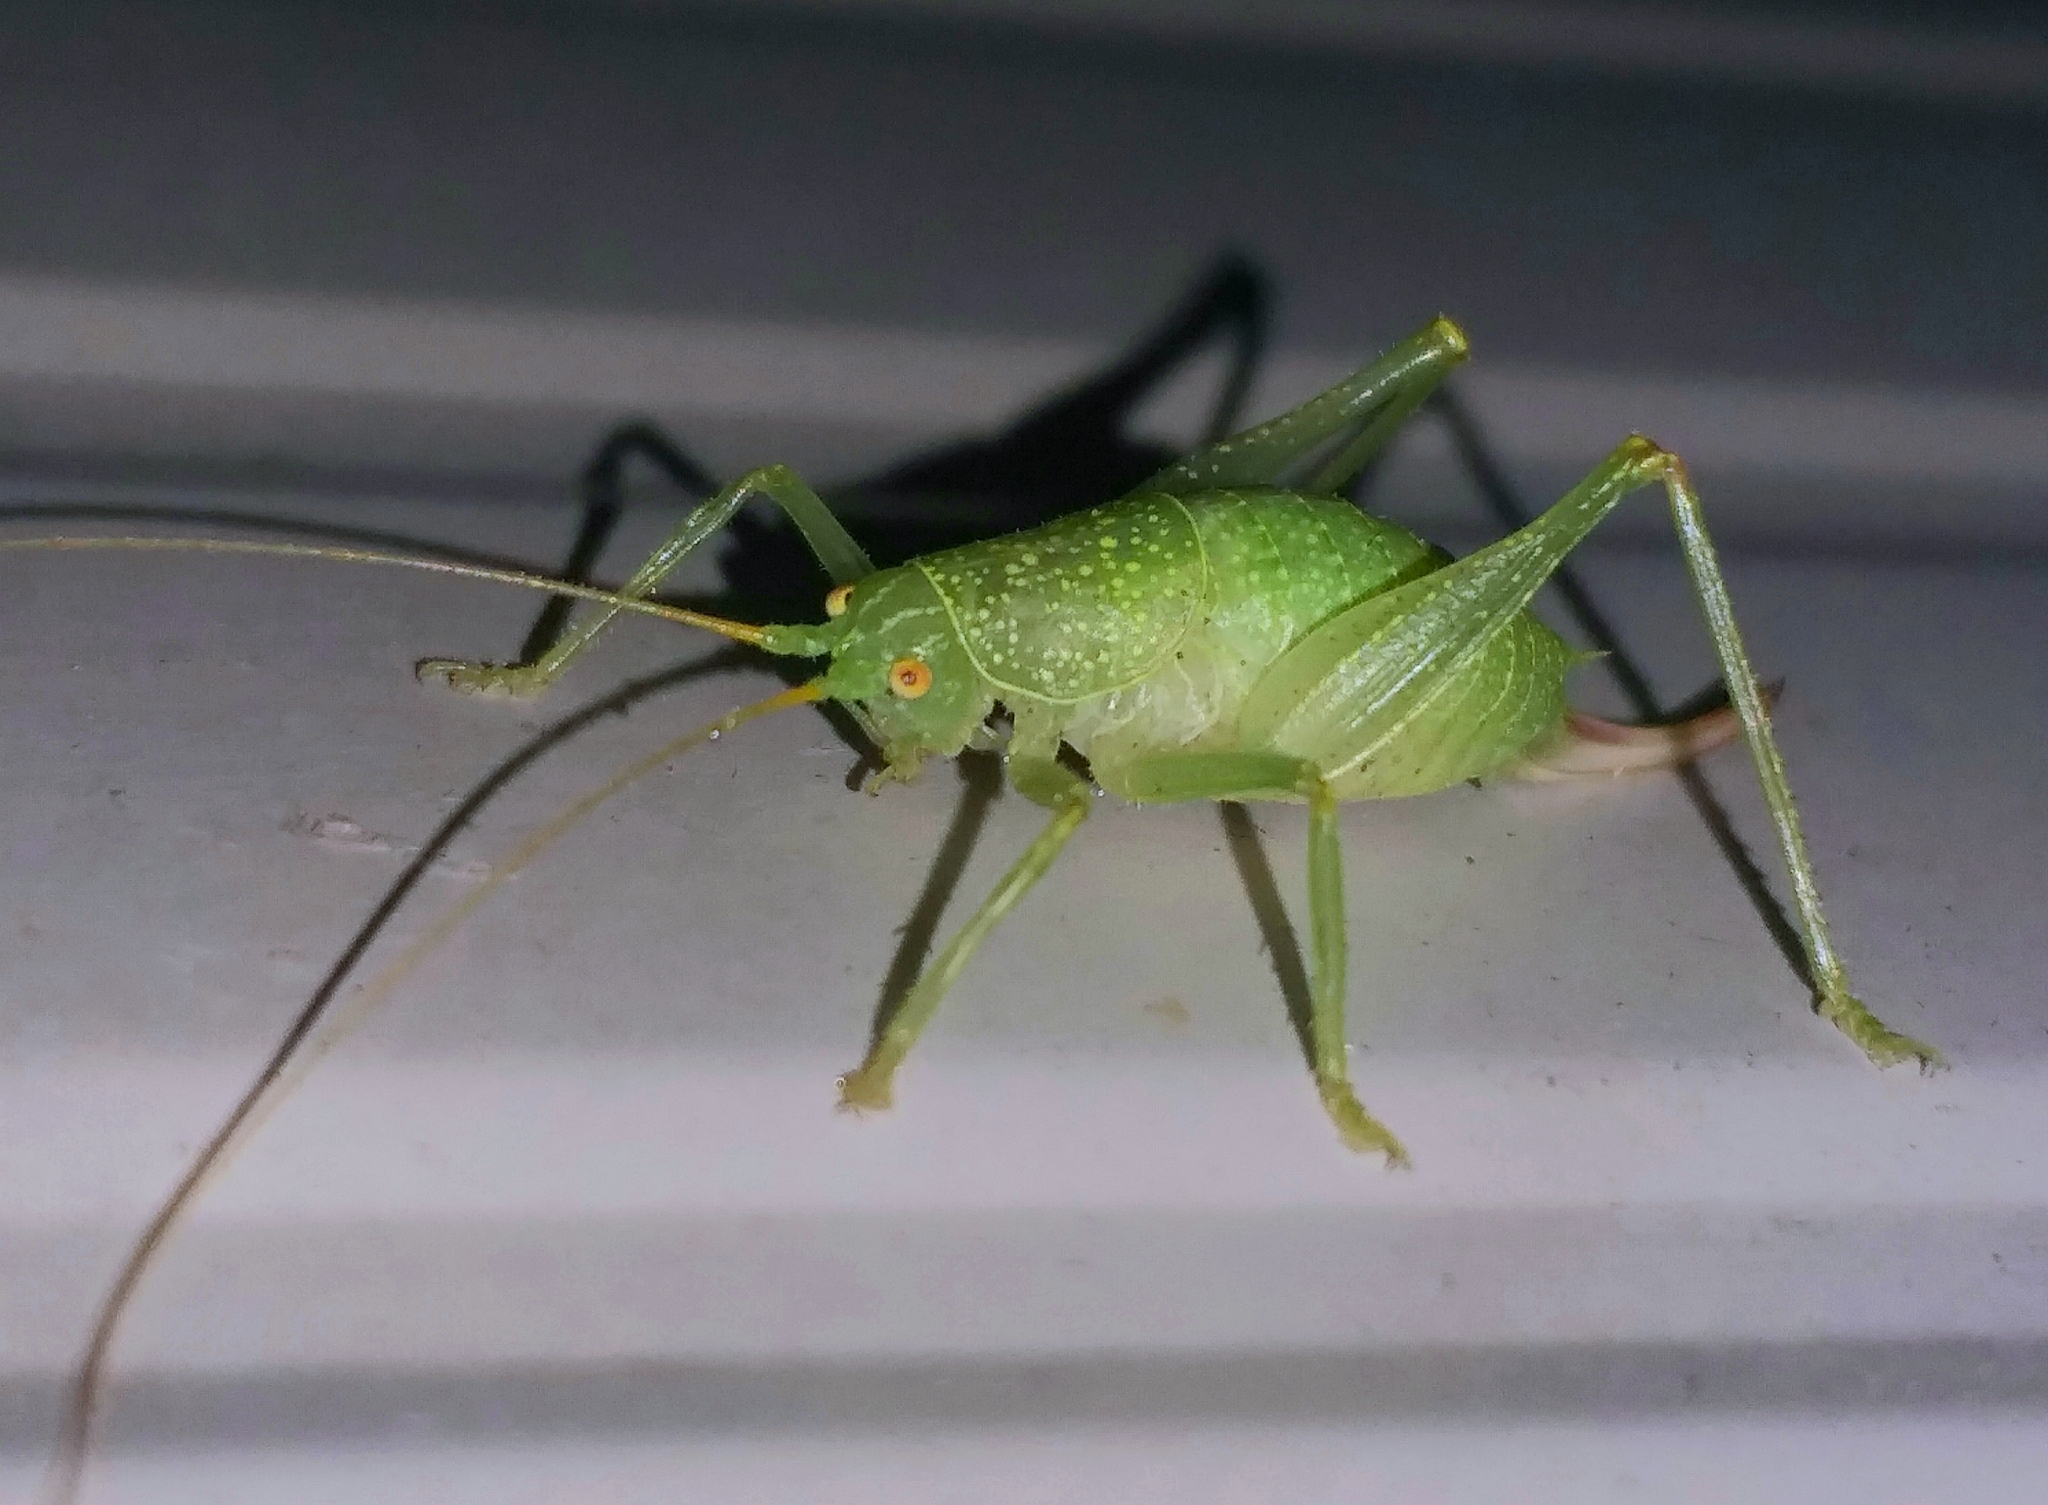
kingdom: Animalia
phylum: Arthropoda
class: Insecta
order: Orthoptera
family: Tettigoniidae
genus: Cyrtaspis
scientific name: Cyrtaspis scutata
